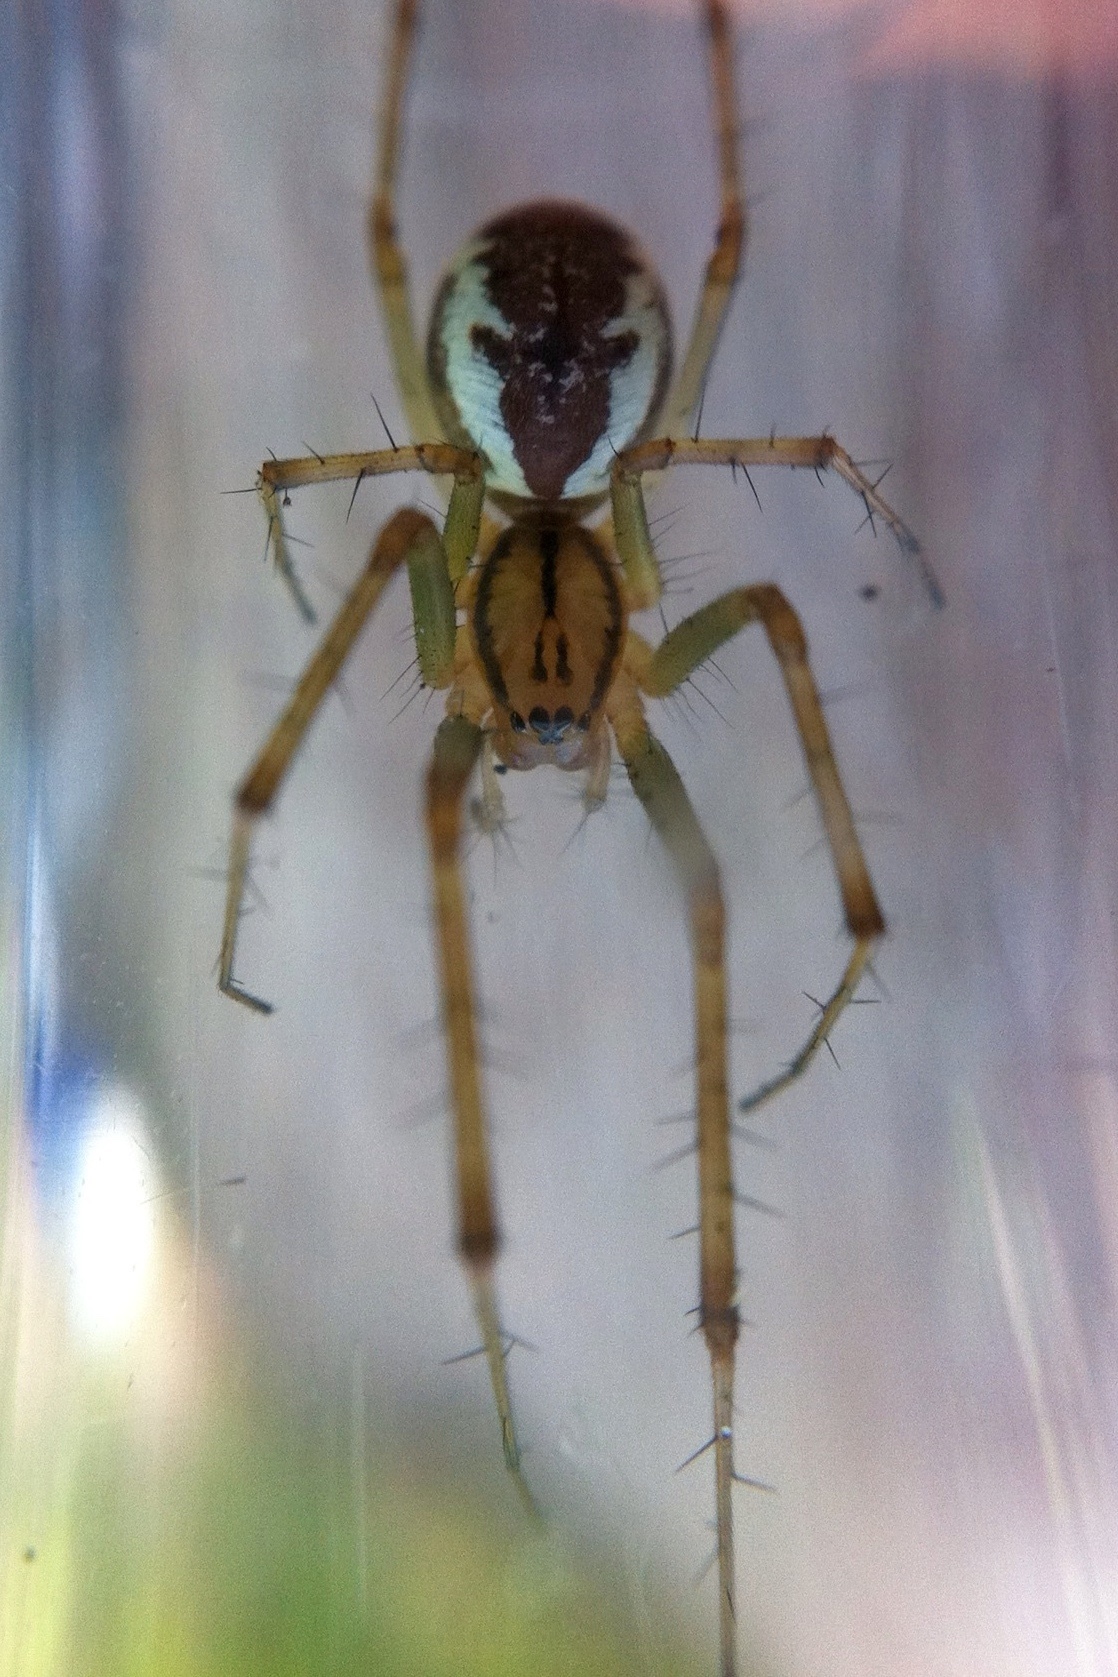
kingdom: Animalia
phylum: Arthropoda
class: Arachnida
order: Araneae
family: Linyphiidae
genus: Linyphia
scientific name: Linyphia triangularis
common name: Money spider
